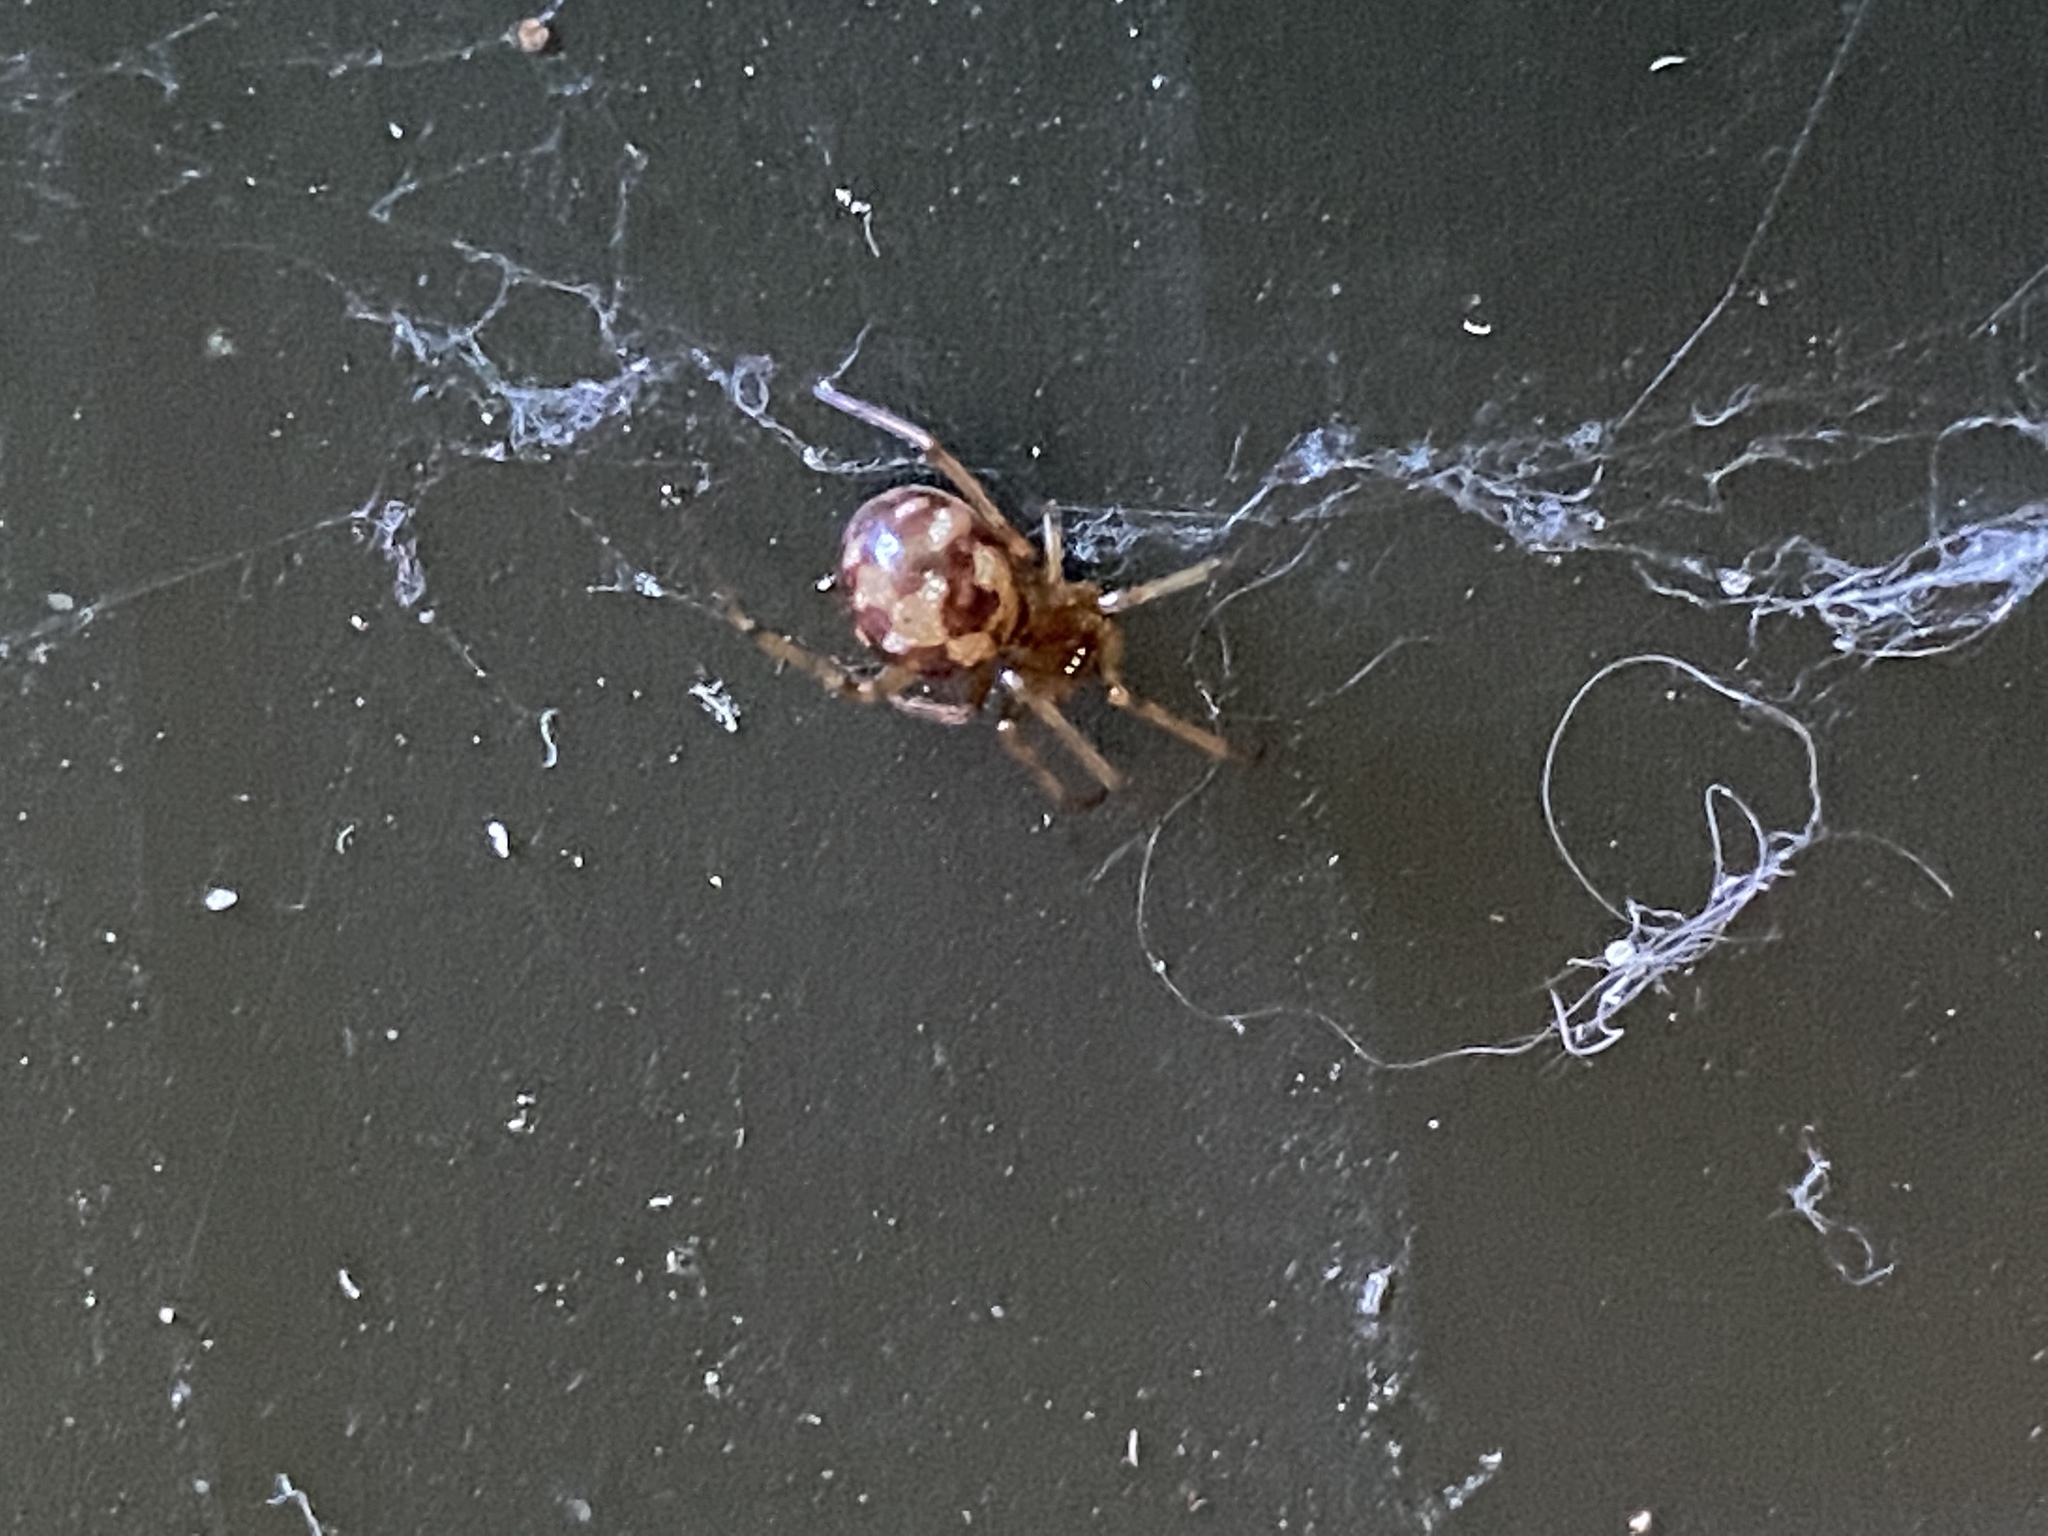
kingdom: Animalia
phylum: Arthropoda
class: Arachnida
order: Araneae
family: Theridiidae
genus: Steatoda
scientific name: Steatoda triangulosa
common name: Triangulate bud spider
